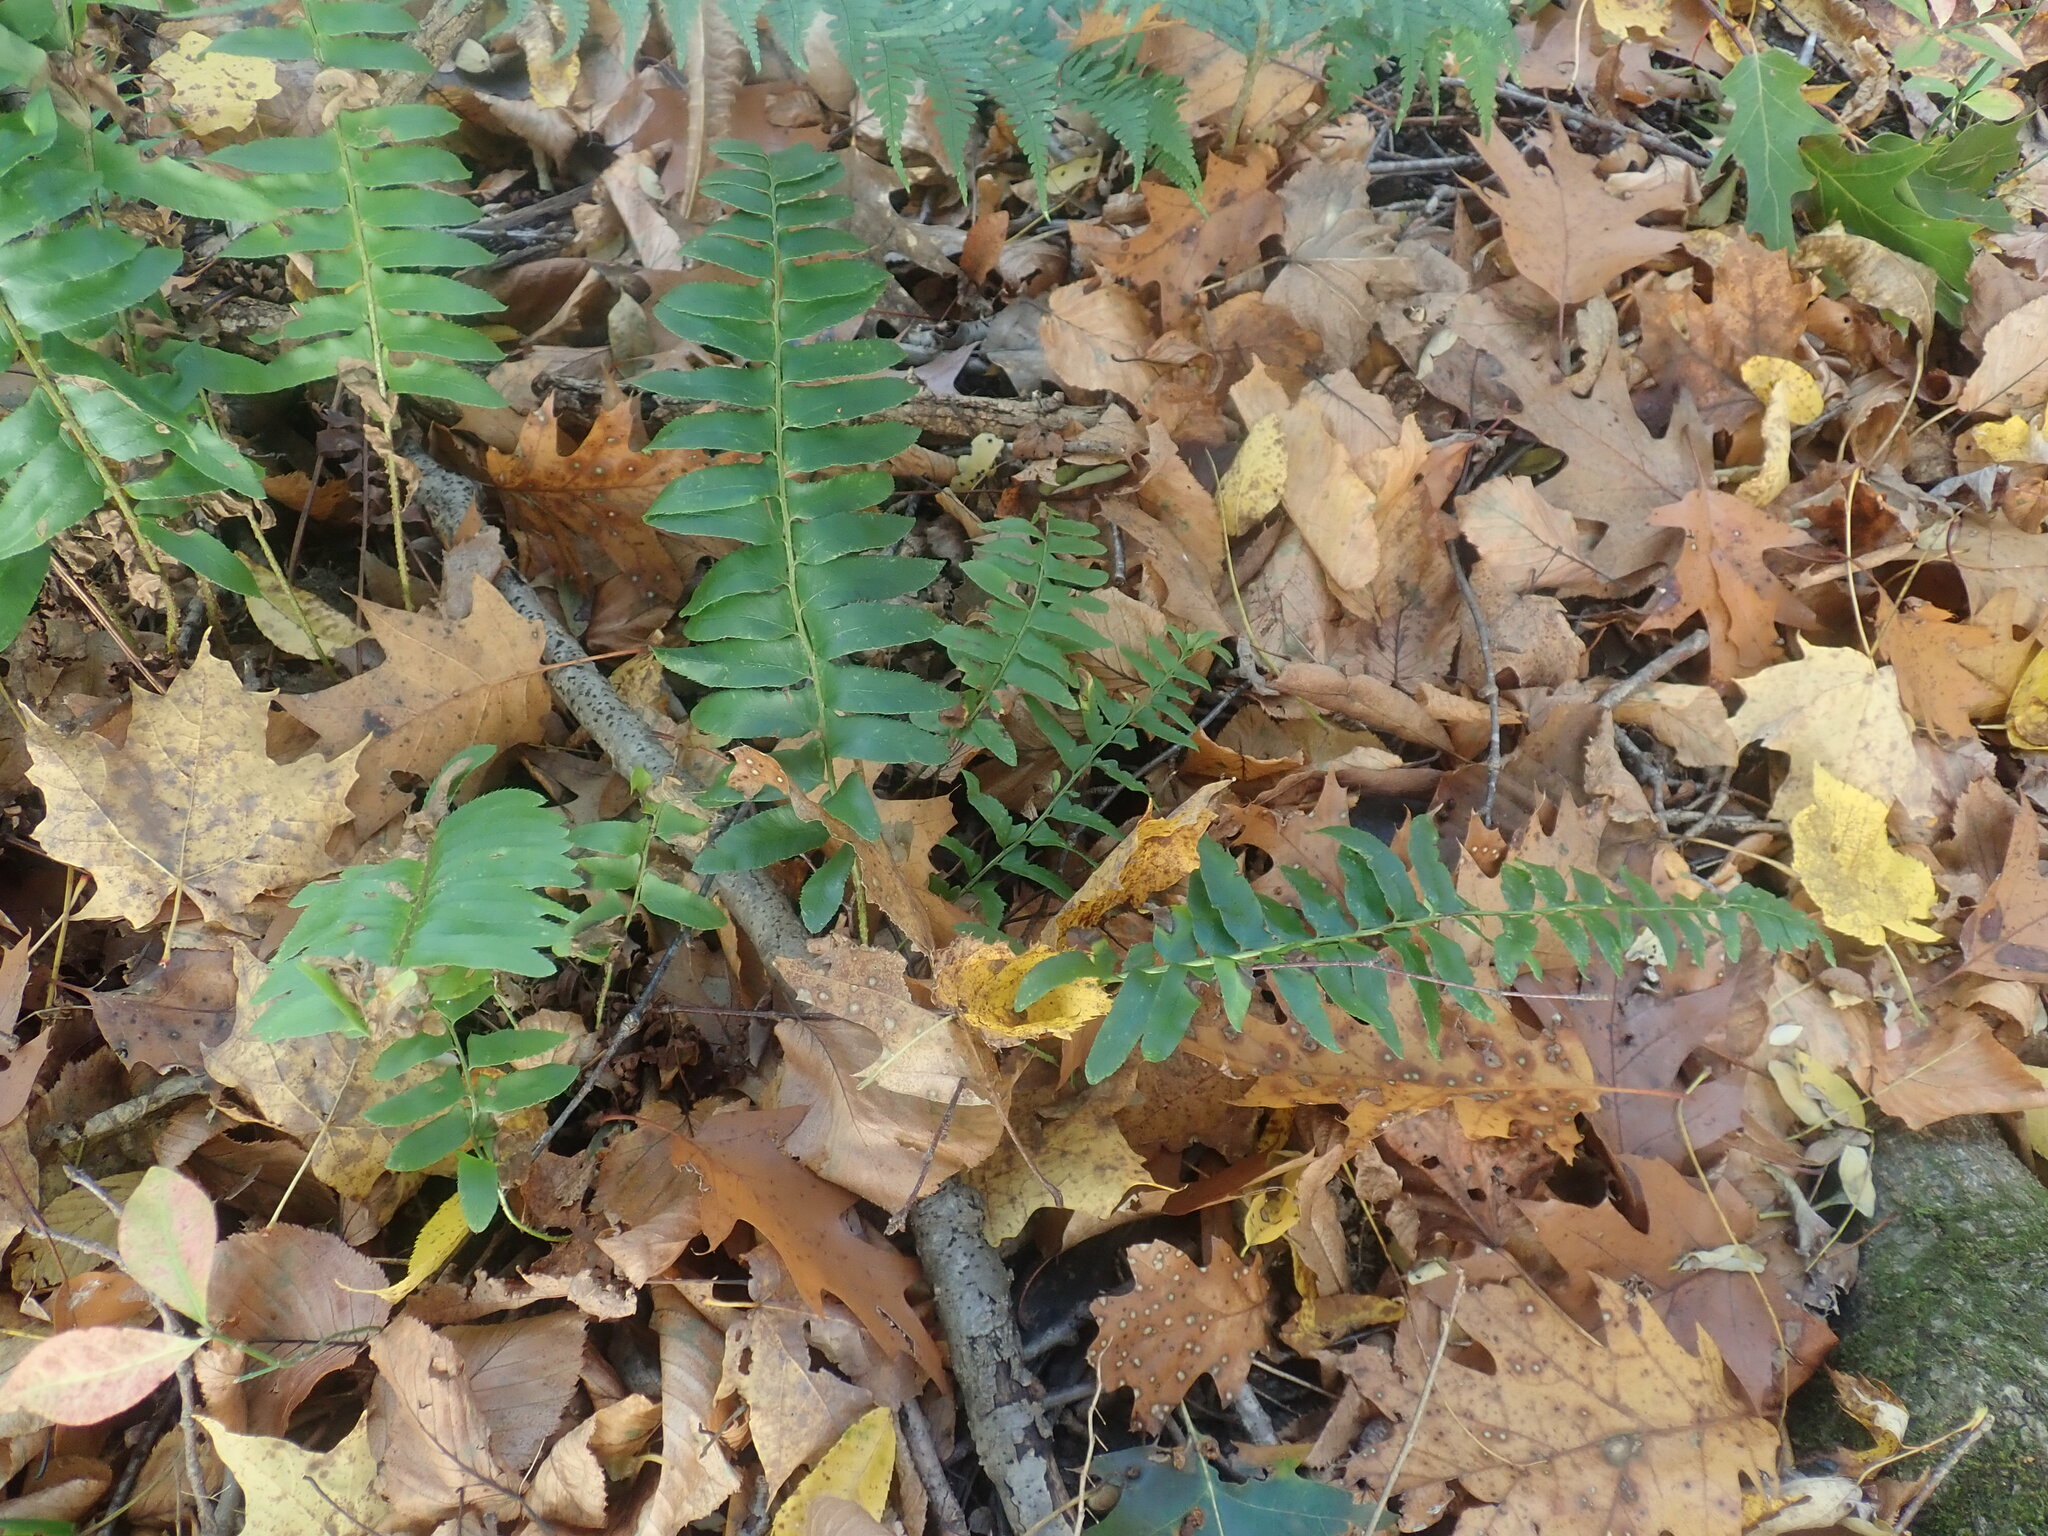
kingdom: Plantae
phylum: Tracheophyta
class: Polypodiopsida
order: Polypodiales
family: Dryopteridaceae
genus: Polystichum
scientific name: Polystichum acrostichoides
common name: Christmas fern
